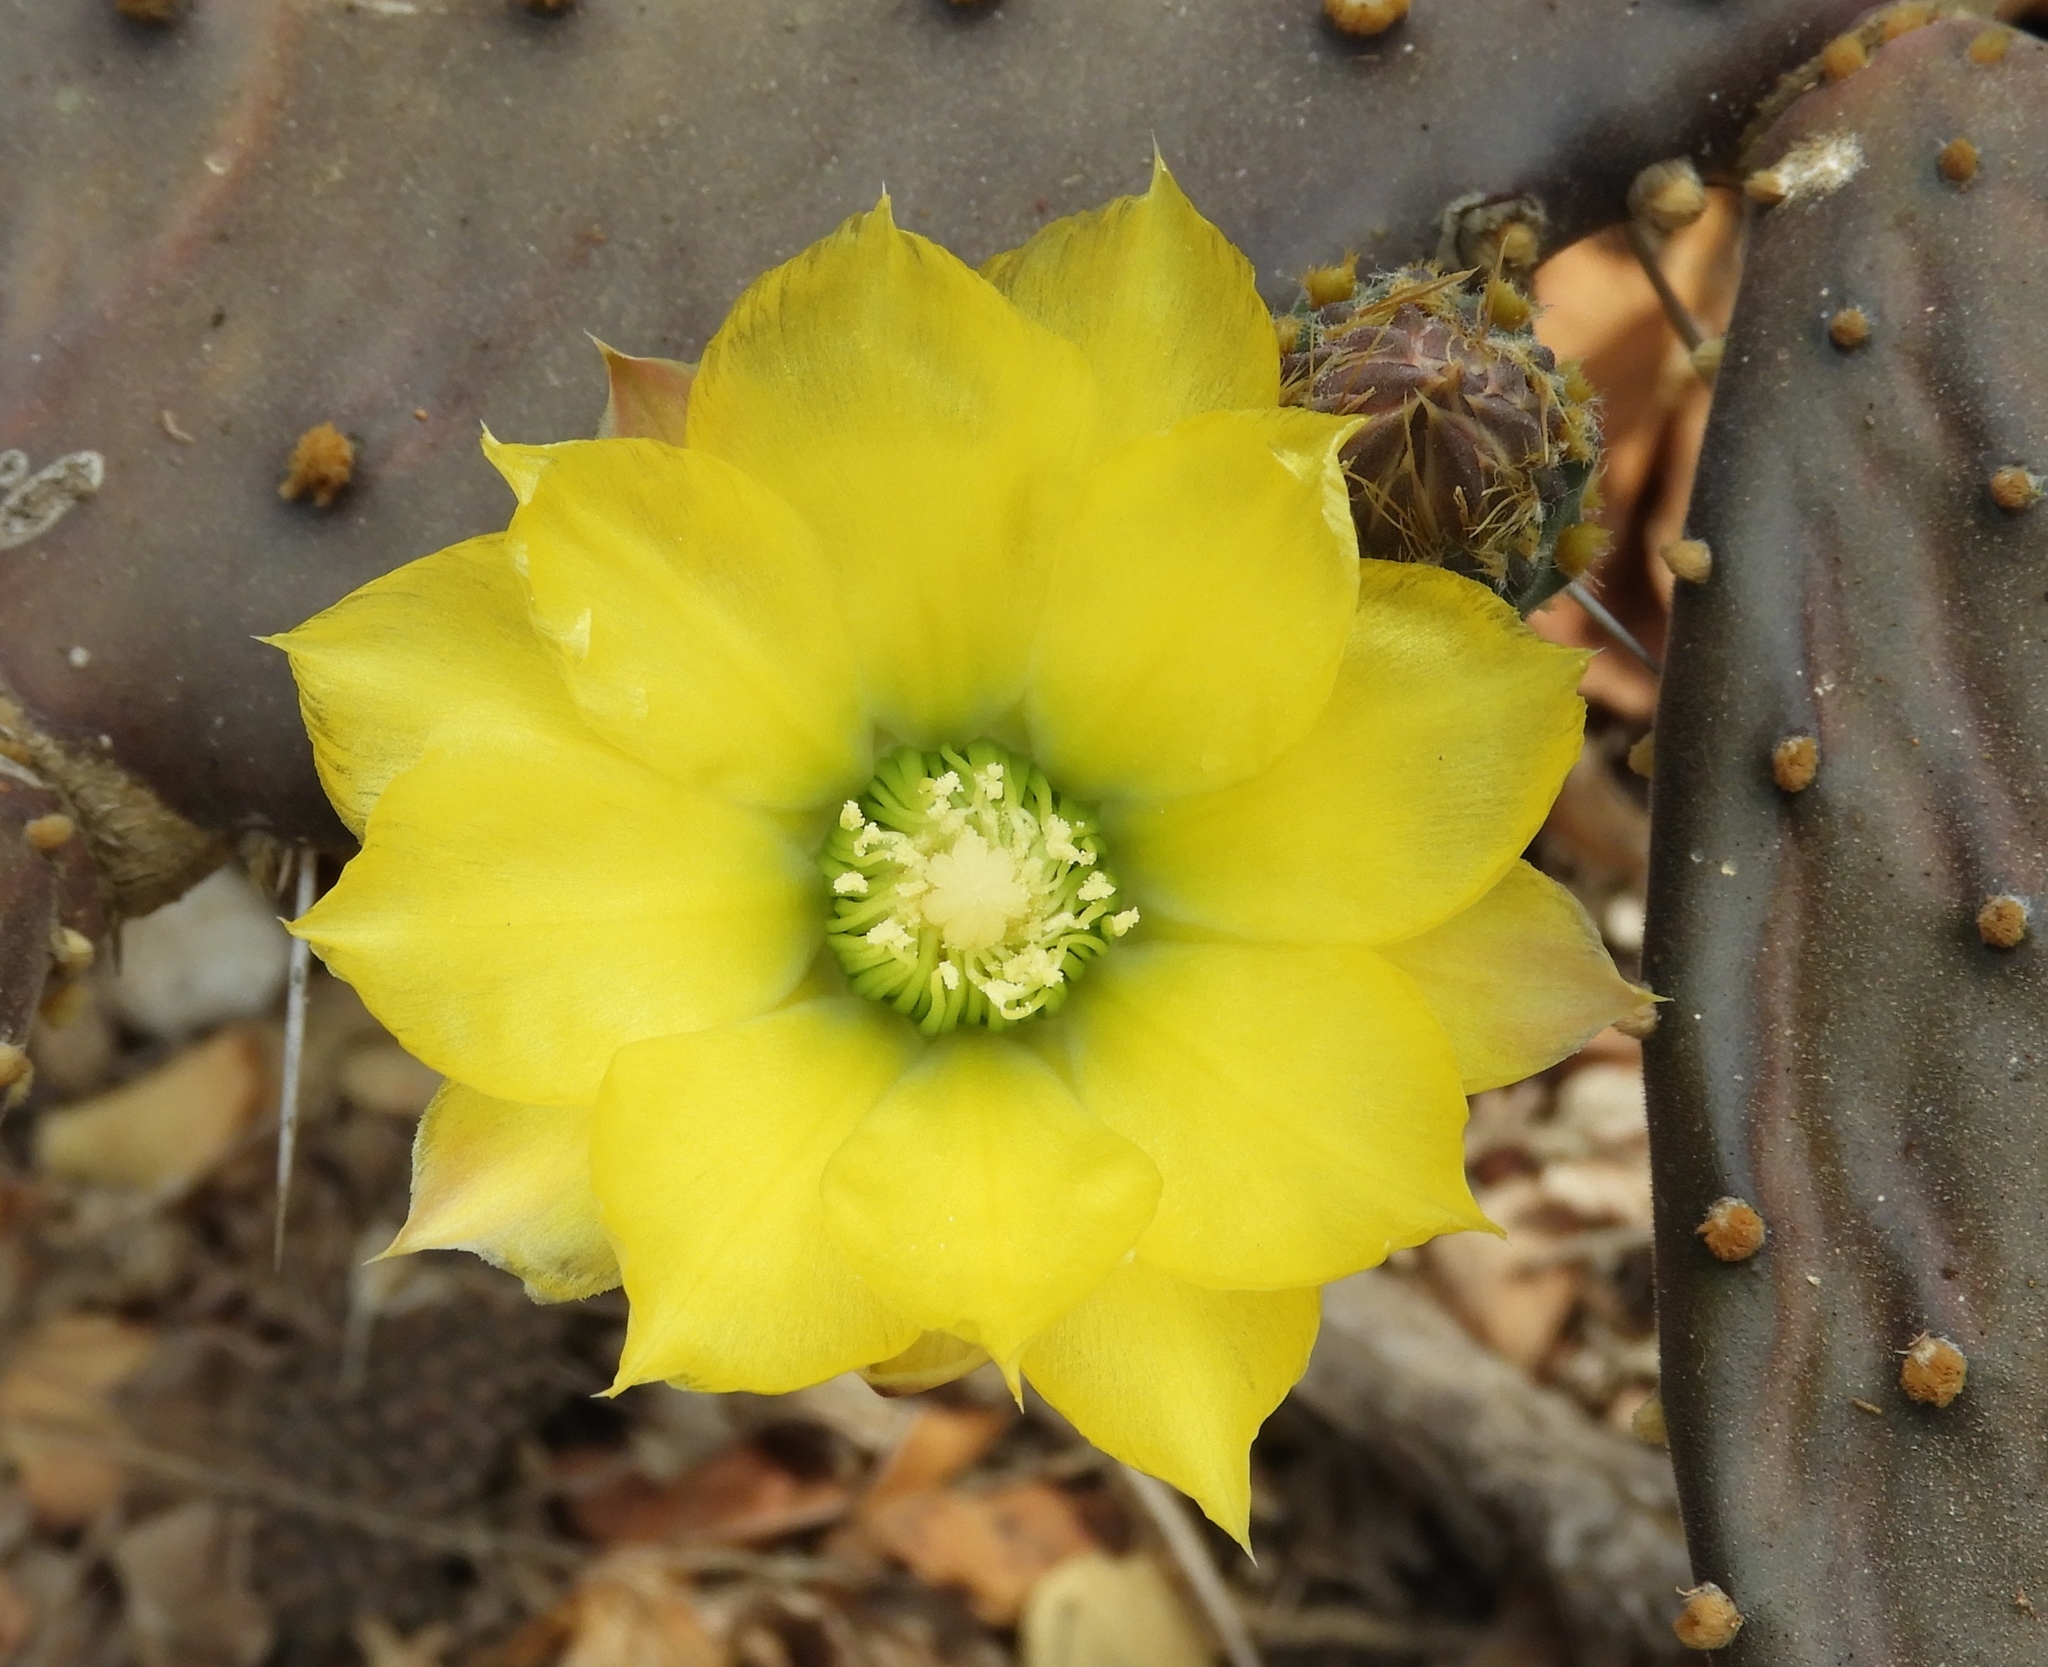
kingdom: Plantae
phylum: Tracheophyta
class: Magnoliopsida
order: Caryophyllales
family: Cactaceae
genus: Opuntia
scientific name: Opuntia decumbens
